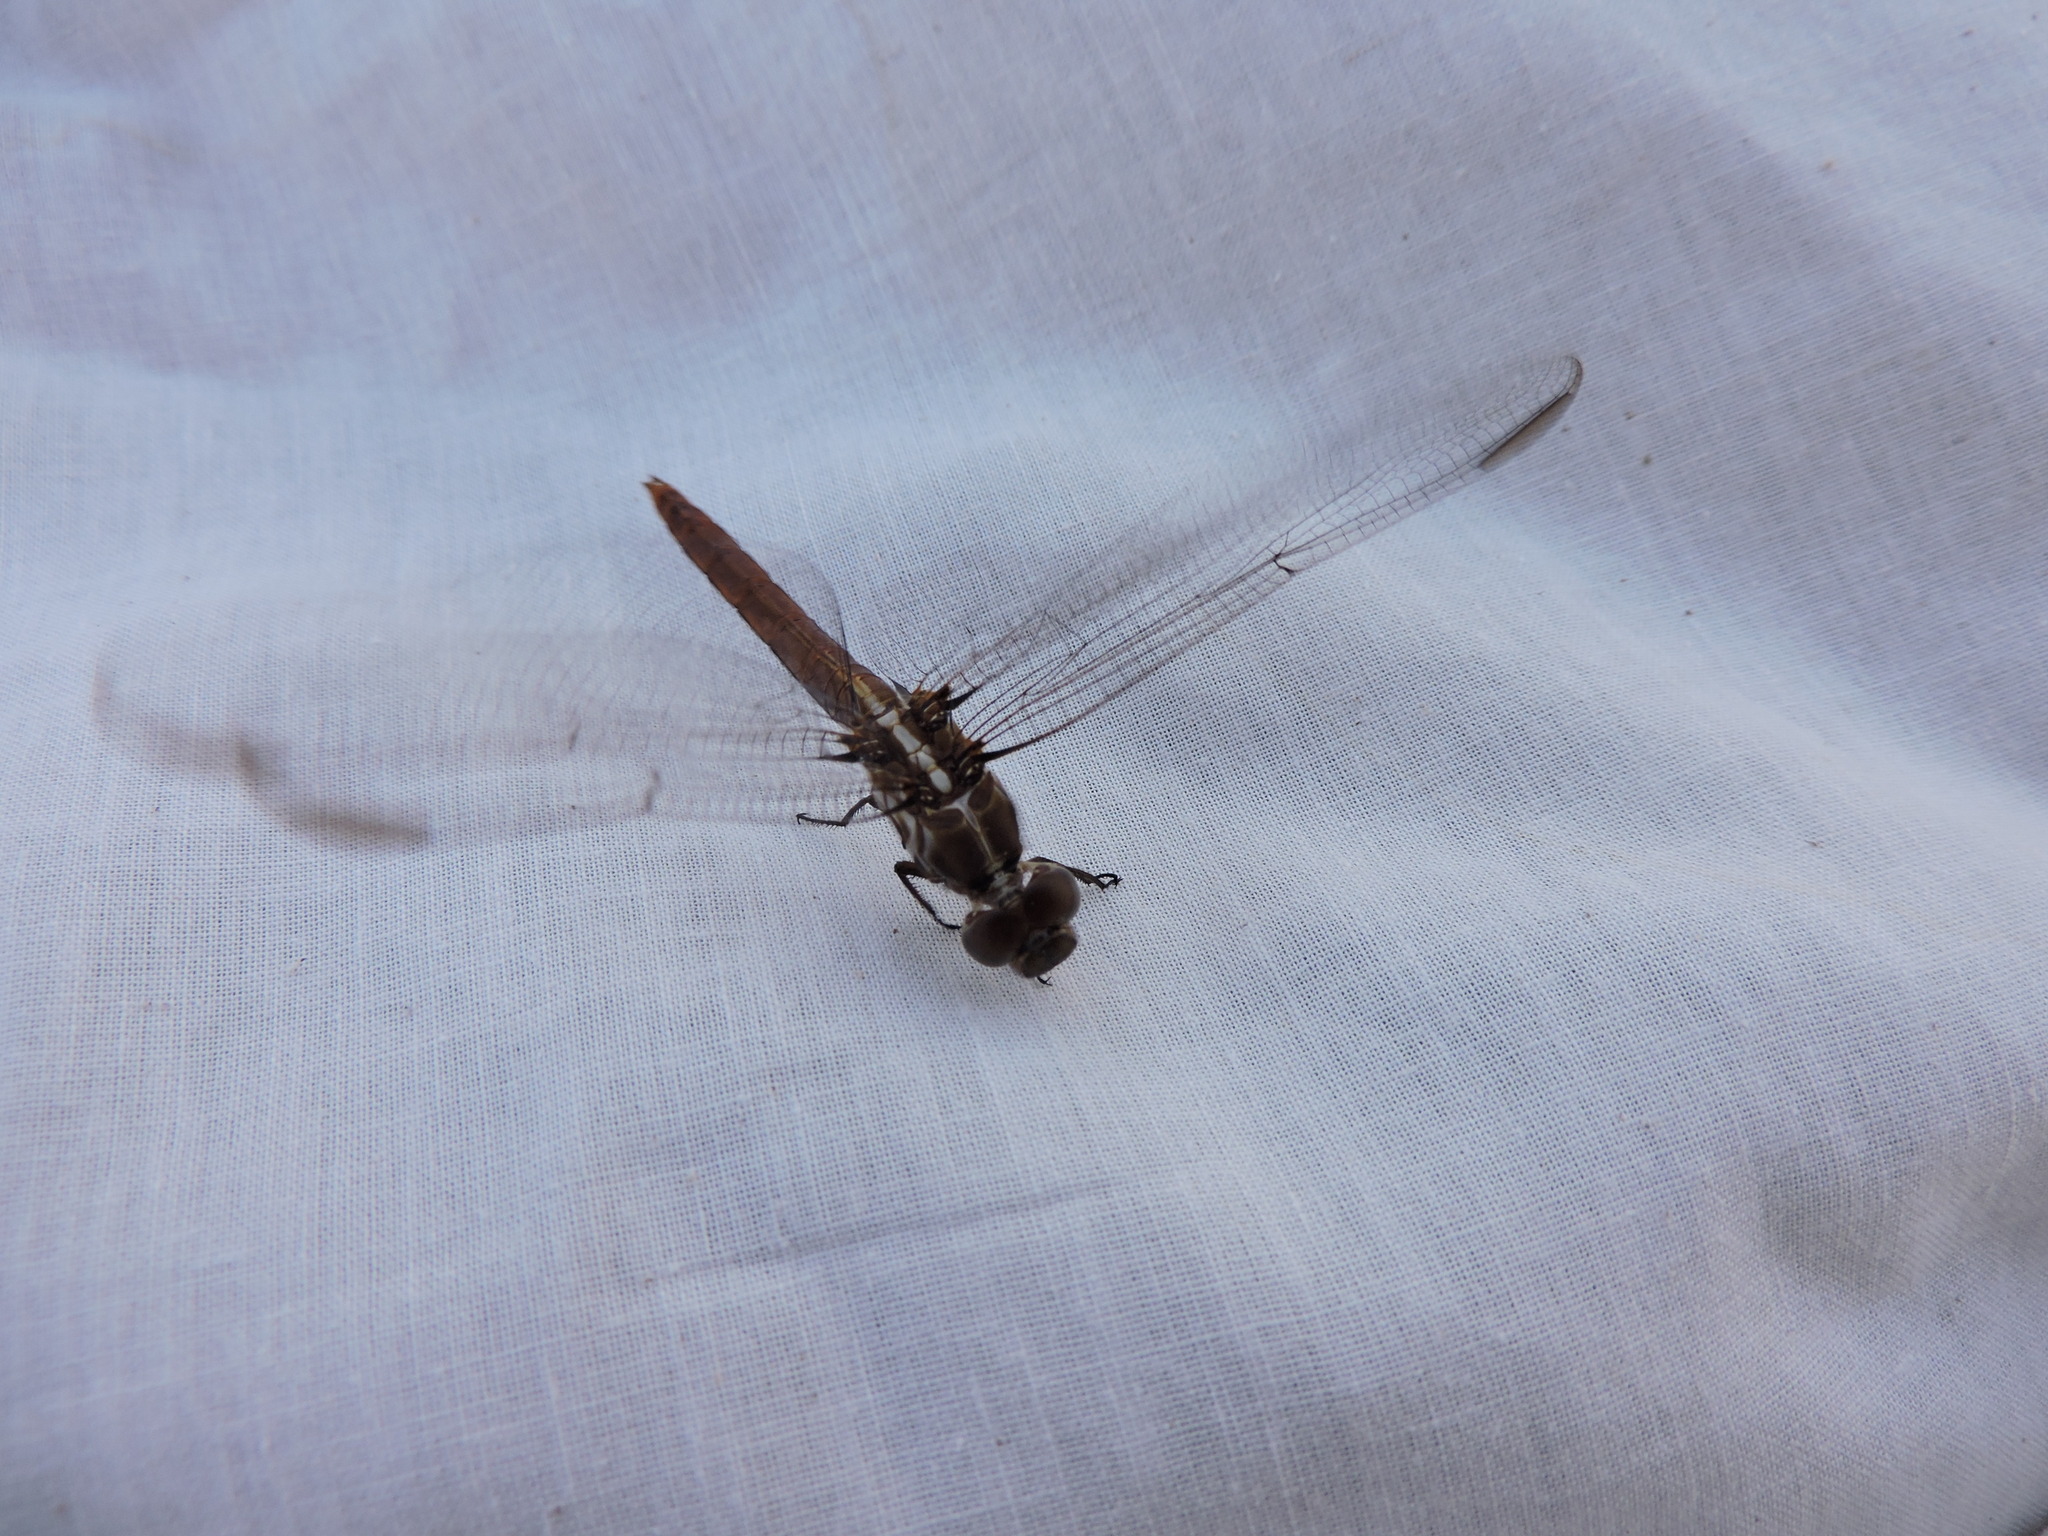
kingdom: Animalia
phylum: Arthropoda
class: Insecta
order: Odonata
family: Libellulidae
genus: Orthemis
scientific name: Orthemis ferruginea
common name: Roseate skimmer
